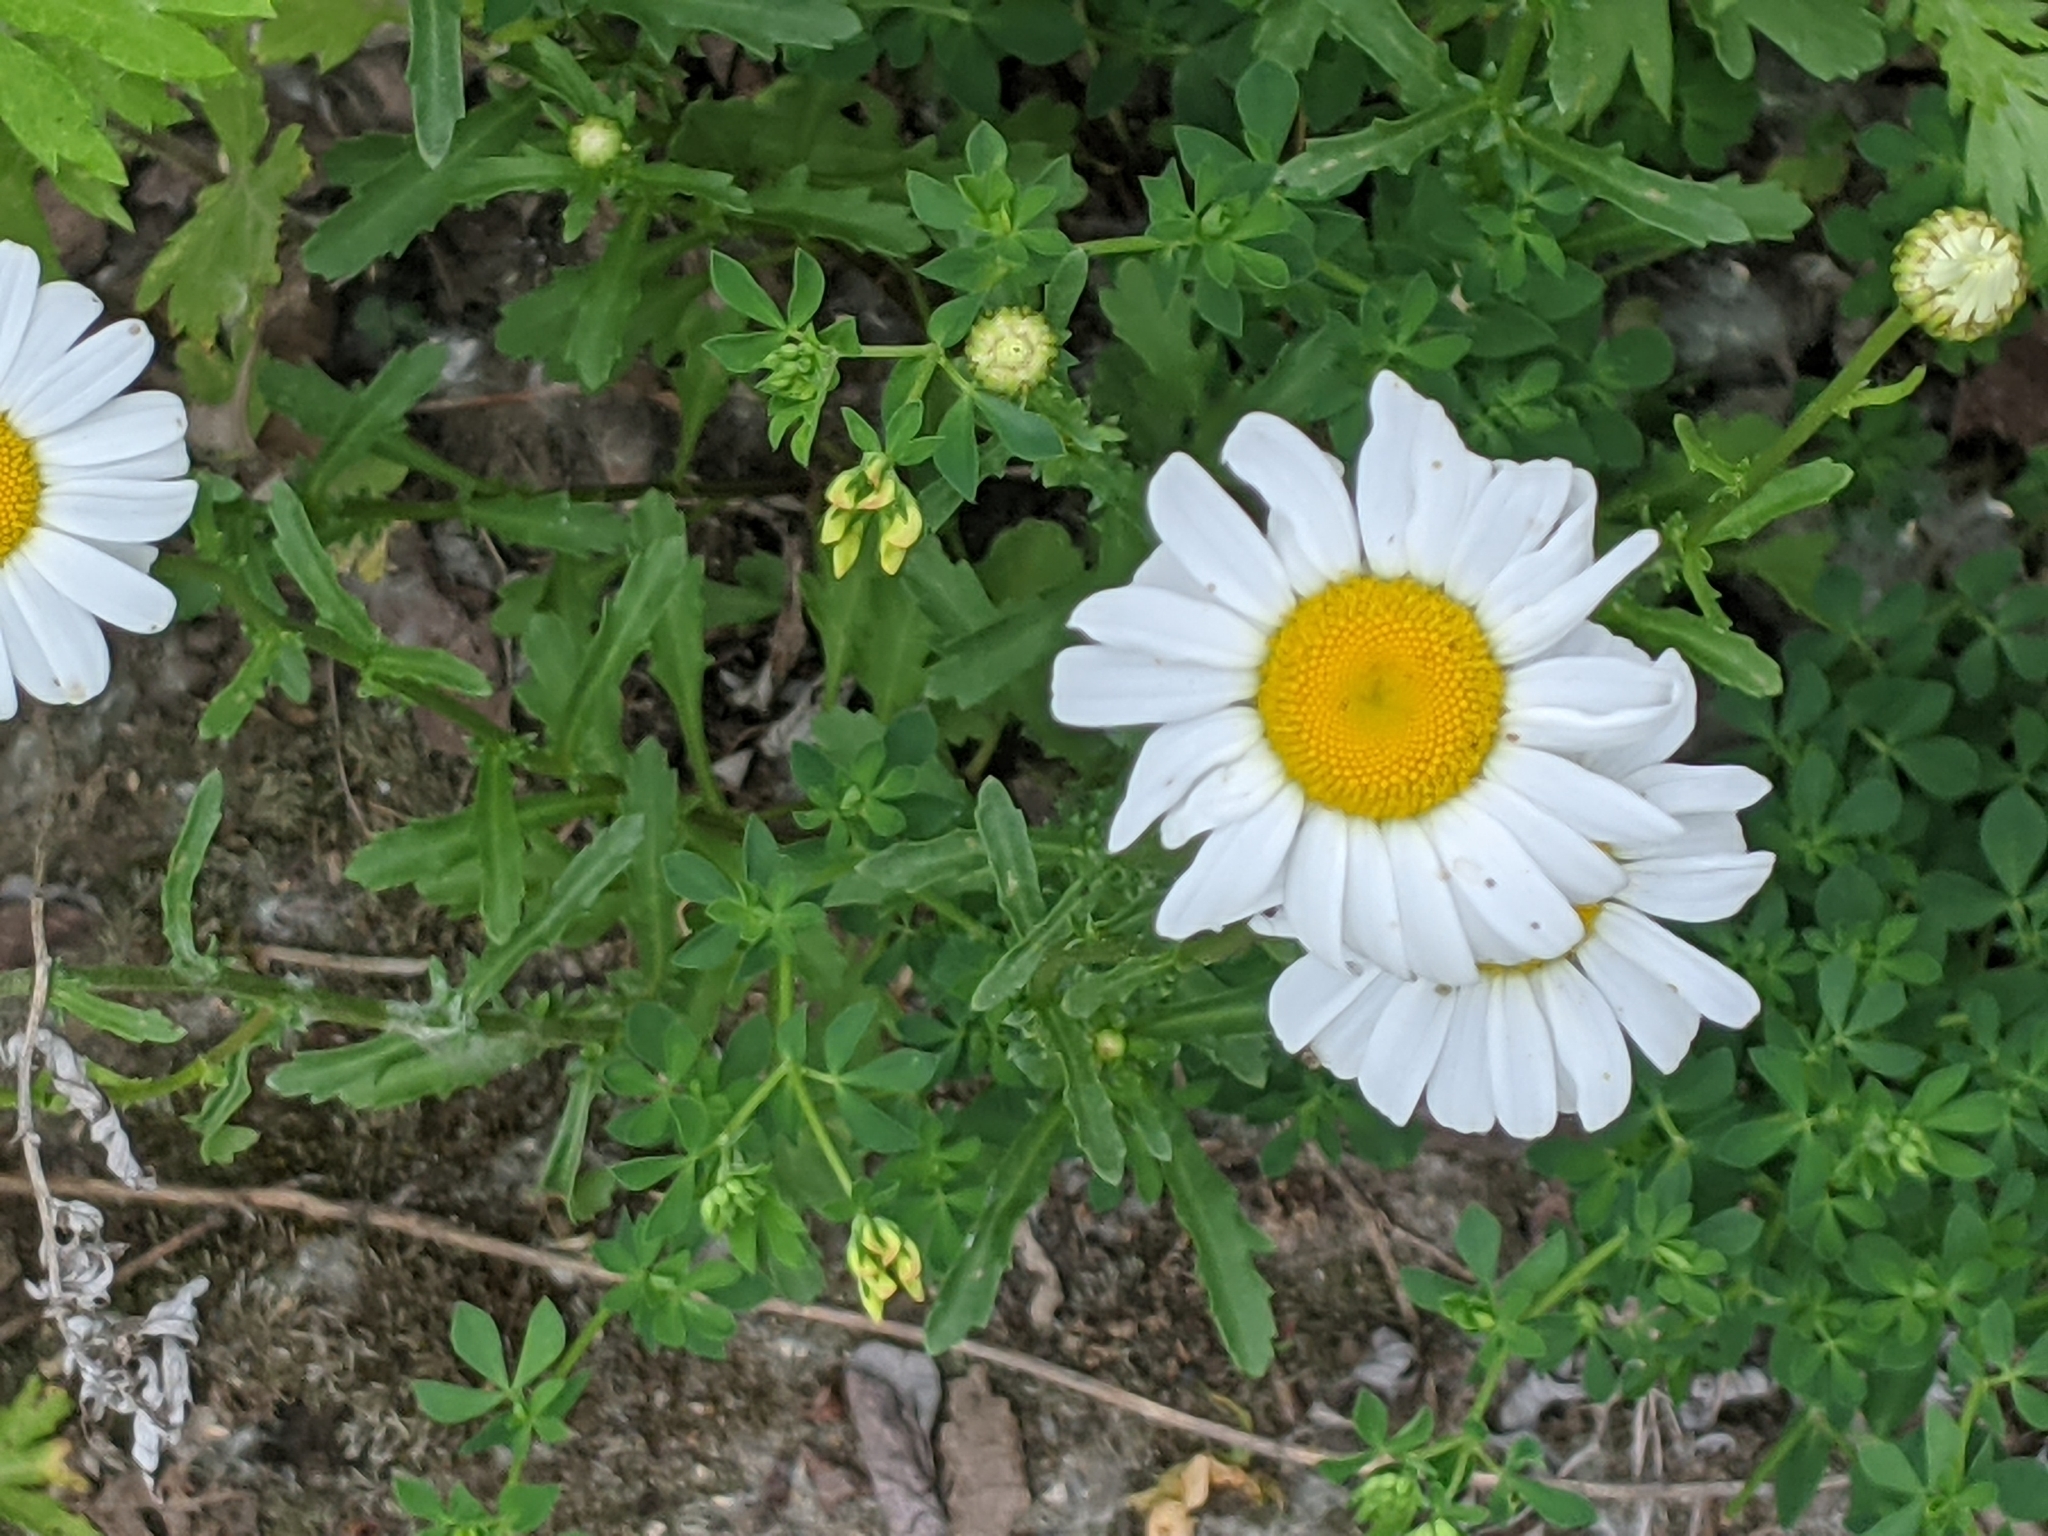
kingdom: Plantae
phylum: Tracheophyta
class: Magnoliopsida
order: Asterales
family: Asteraceae
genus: Leucanthemum
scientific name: Leucanthemum vulgare
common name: Oxeye daisy
